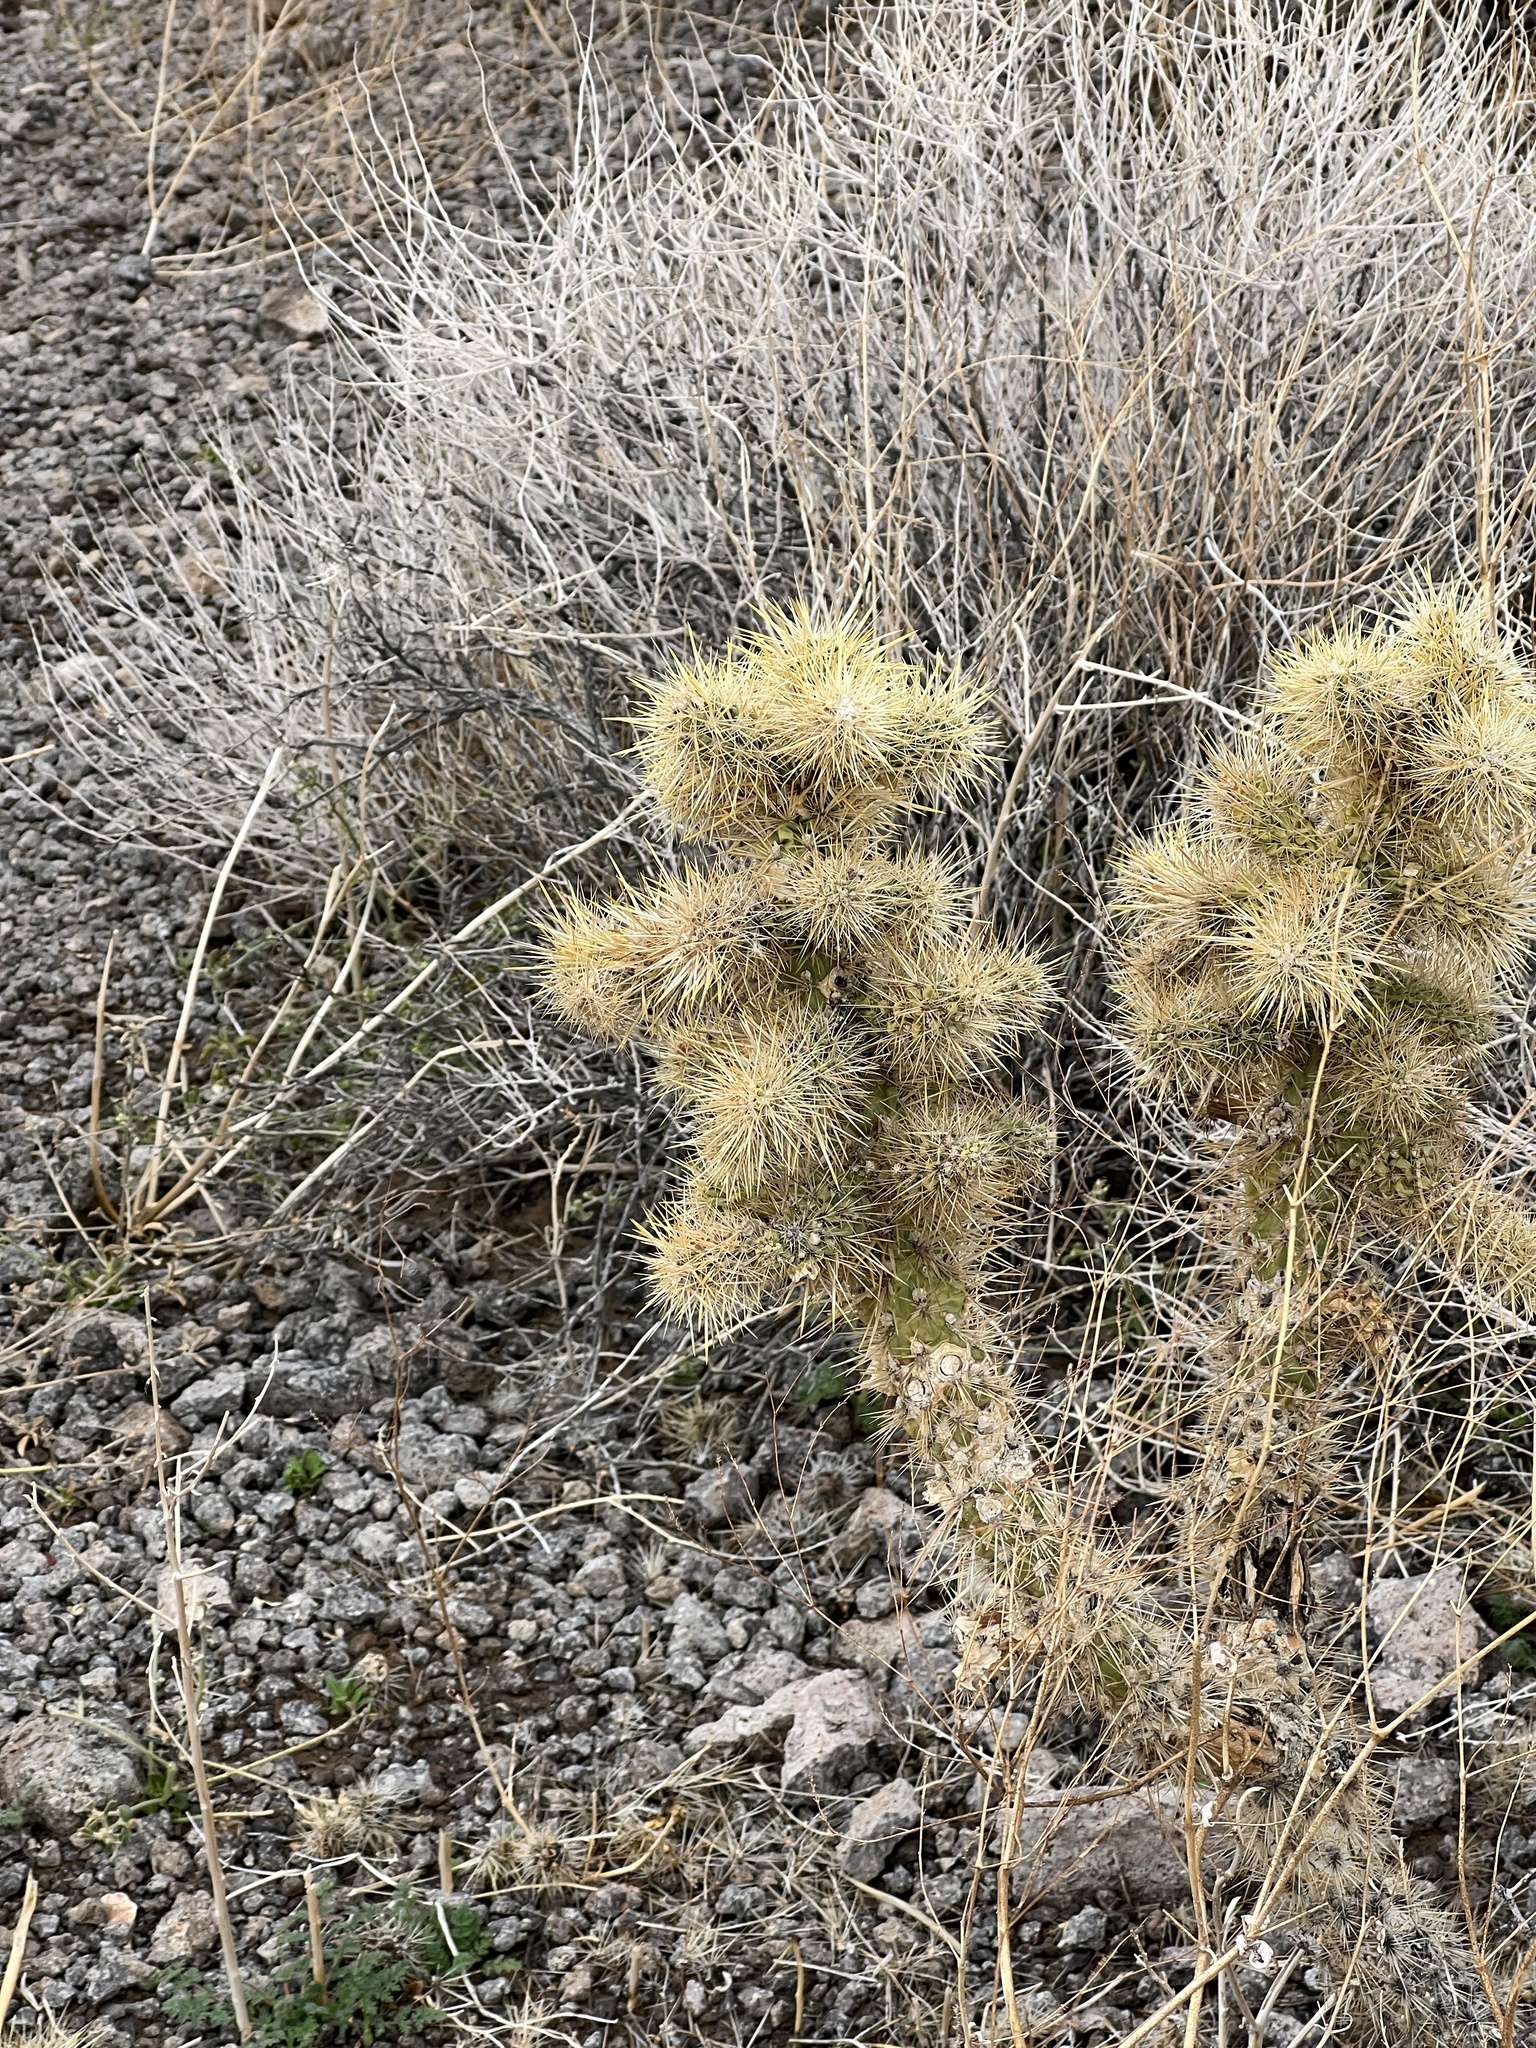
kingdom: Plantae
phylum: Tracheophyta
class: Magnoliopsida
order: Caryophyllales
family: Cactaceae
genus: Cylindropuntia
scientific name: Cylindropuntia echinocarpa
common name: Ground cholla
